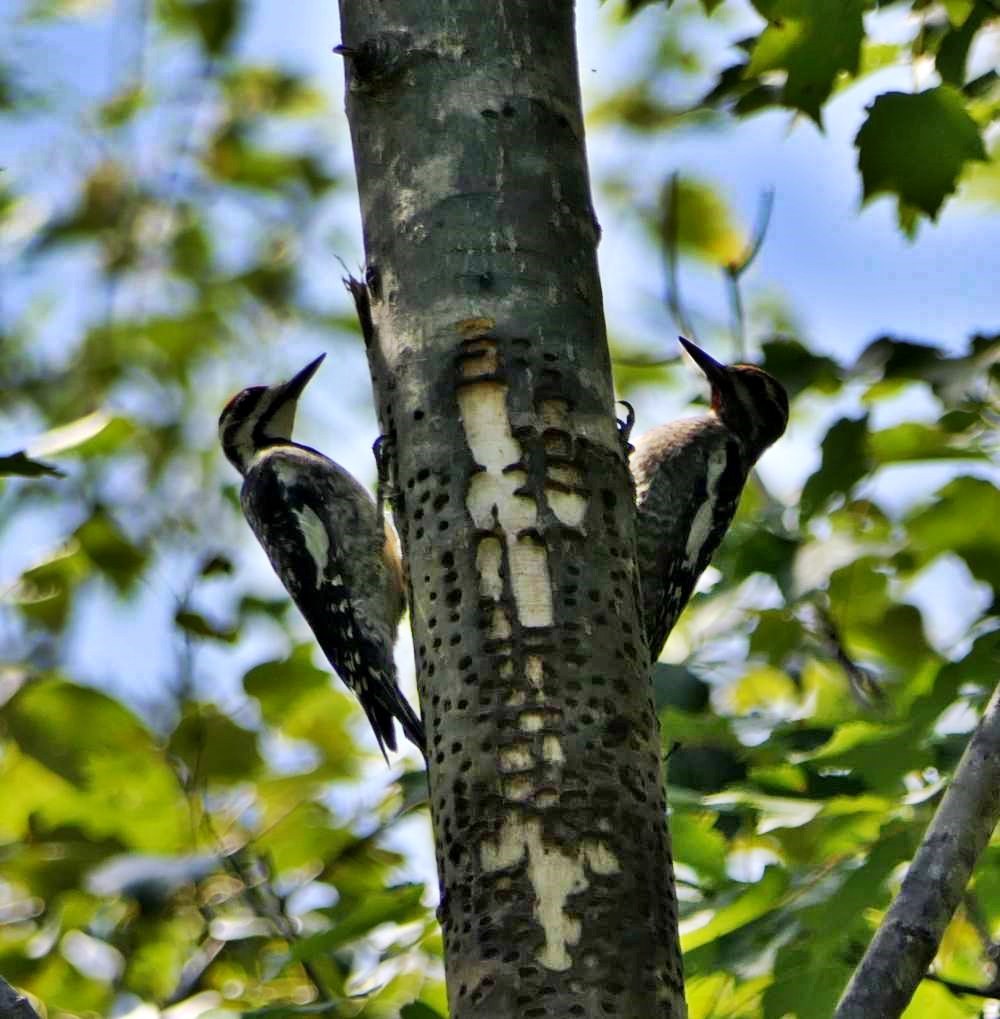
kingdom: Animalia
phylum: Chordata
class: Aves
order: Piciformes
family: Picidae
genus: Sphyrapicus
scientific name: Sphyrapicus varius
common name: Yellow-bellied sapsucker
